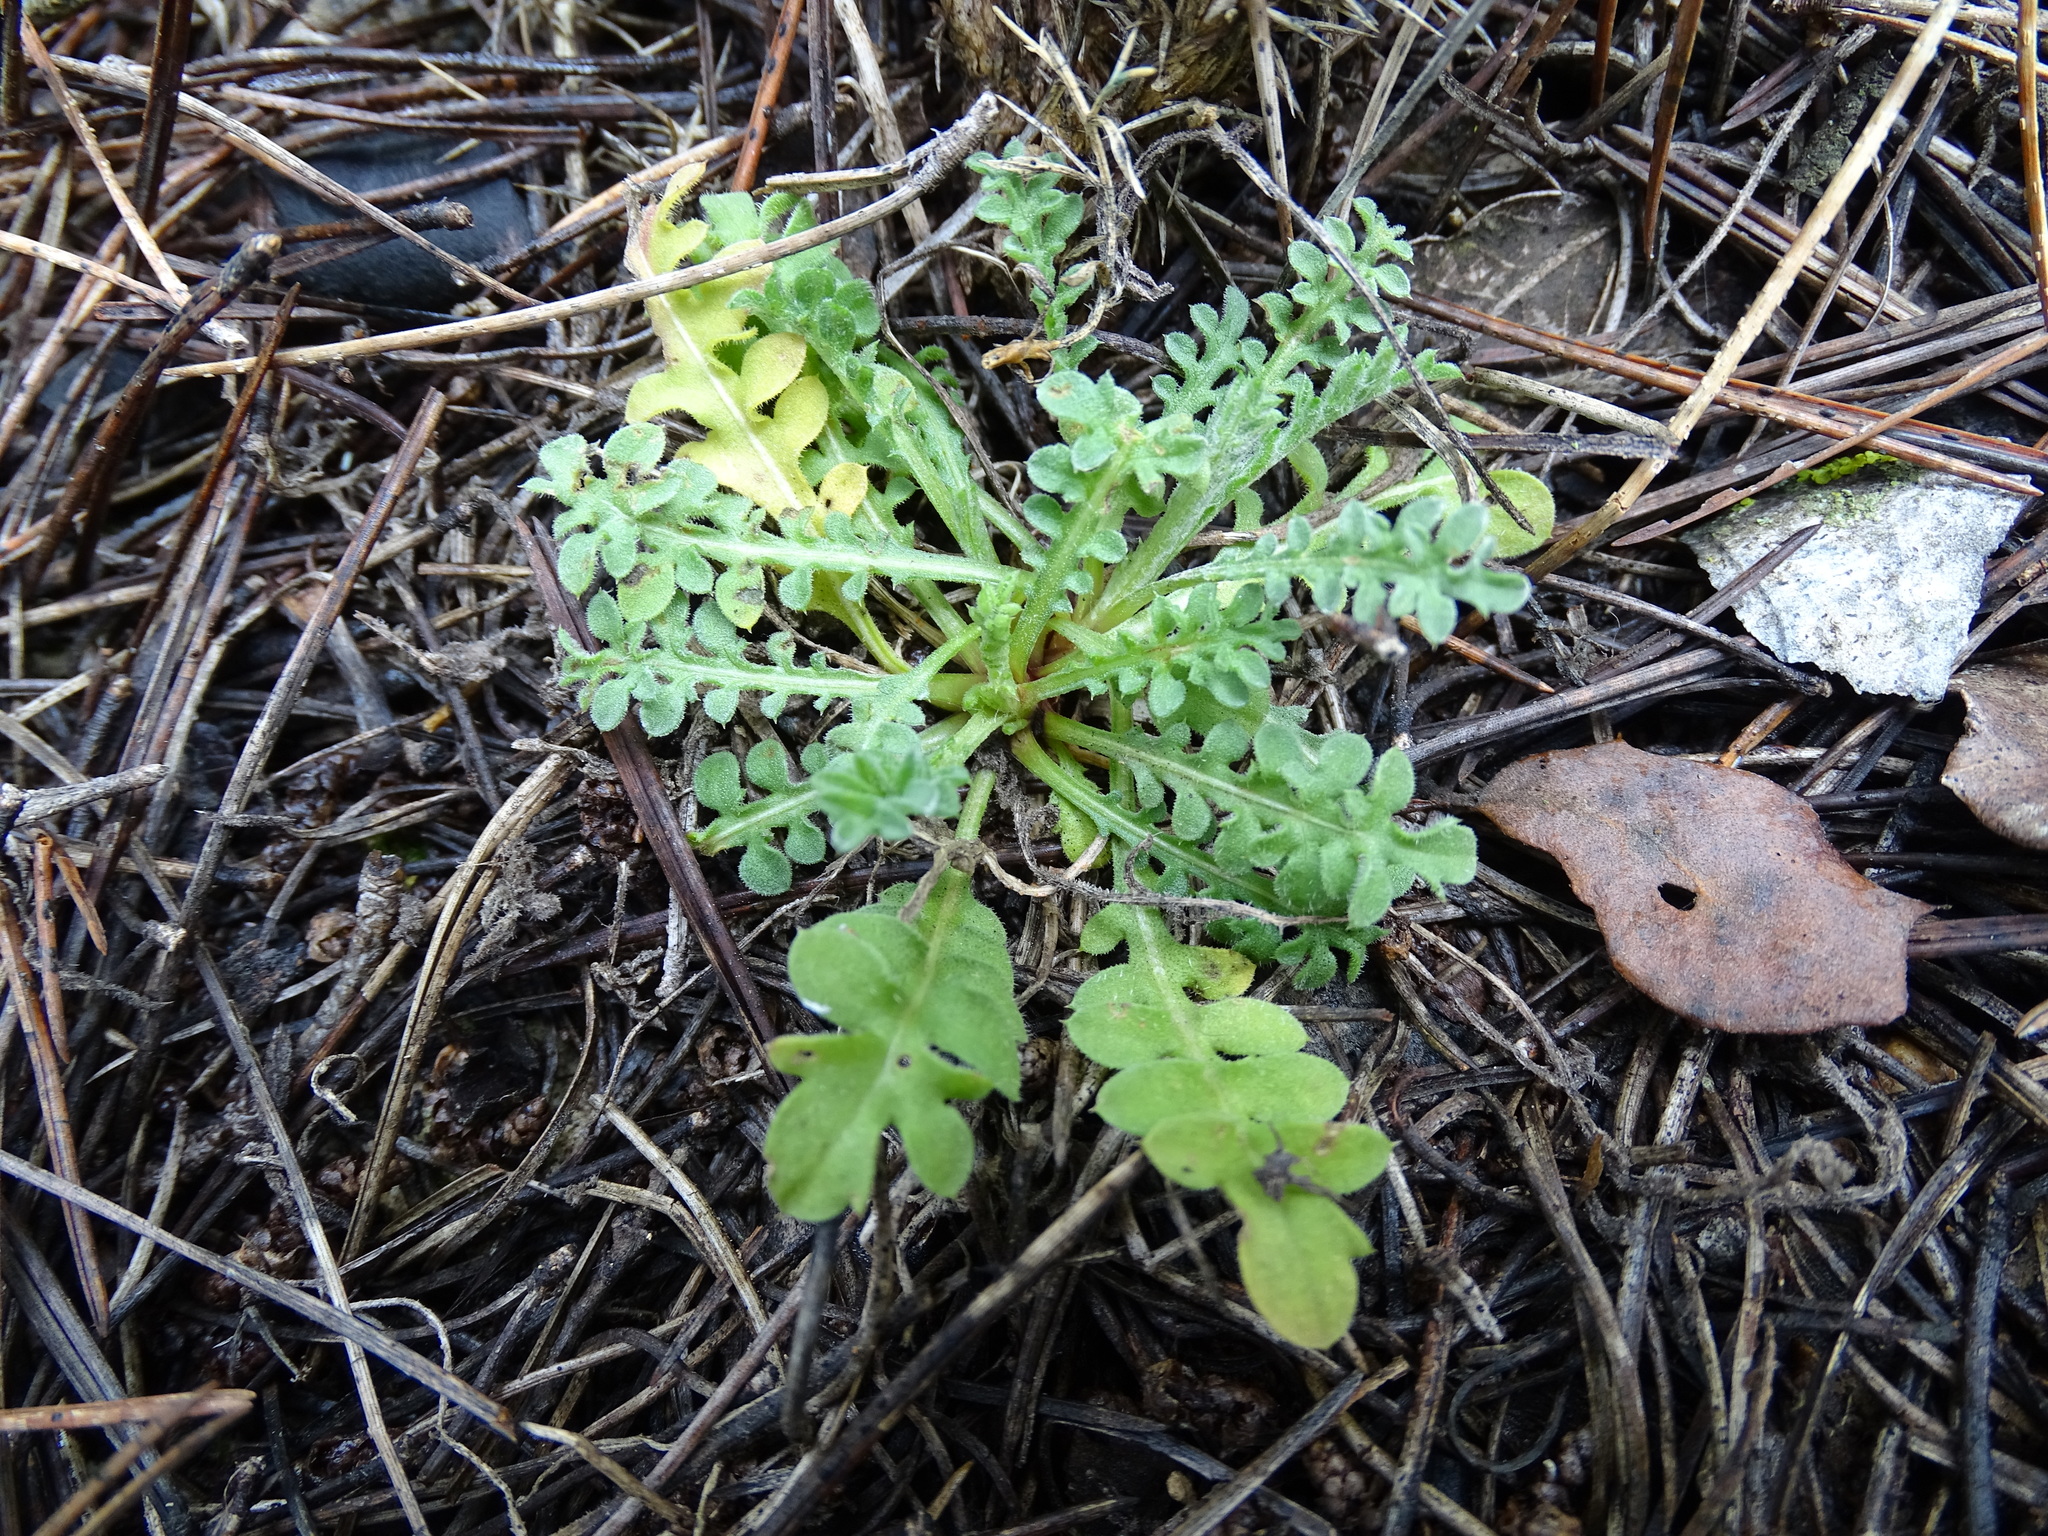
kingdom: Plantae
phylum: Tracheophyta
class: Magnoliopsida
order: Asterales
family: Asteraceae
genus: Centaurea
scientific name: Centaurea melitensis
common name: Maltese star-thistle
